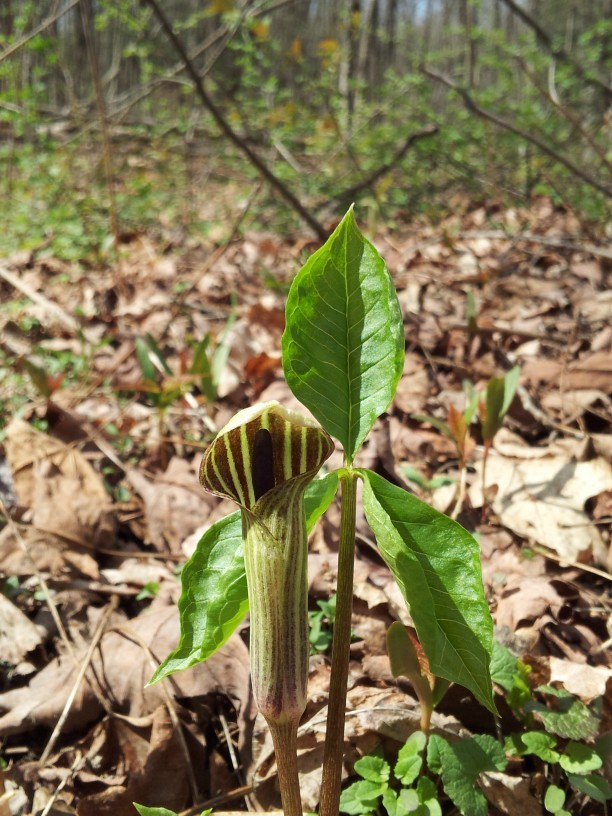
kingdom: Plantae
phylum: Tracheophyta
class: Liliopsida
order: Alismatales
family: Araceae
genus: Arisaema
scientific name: Arisaema triphyllum
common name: Jack-in-the-pulpit
